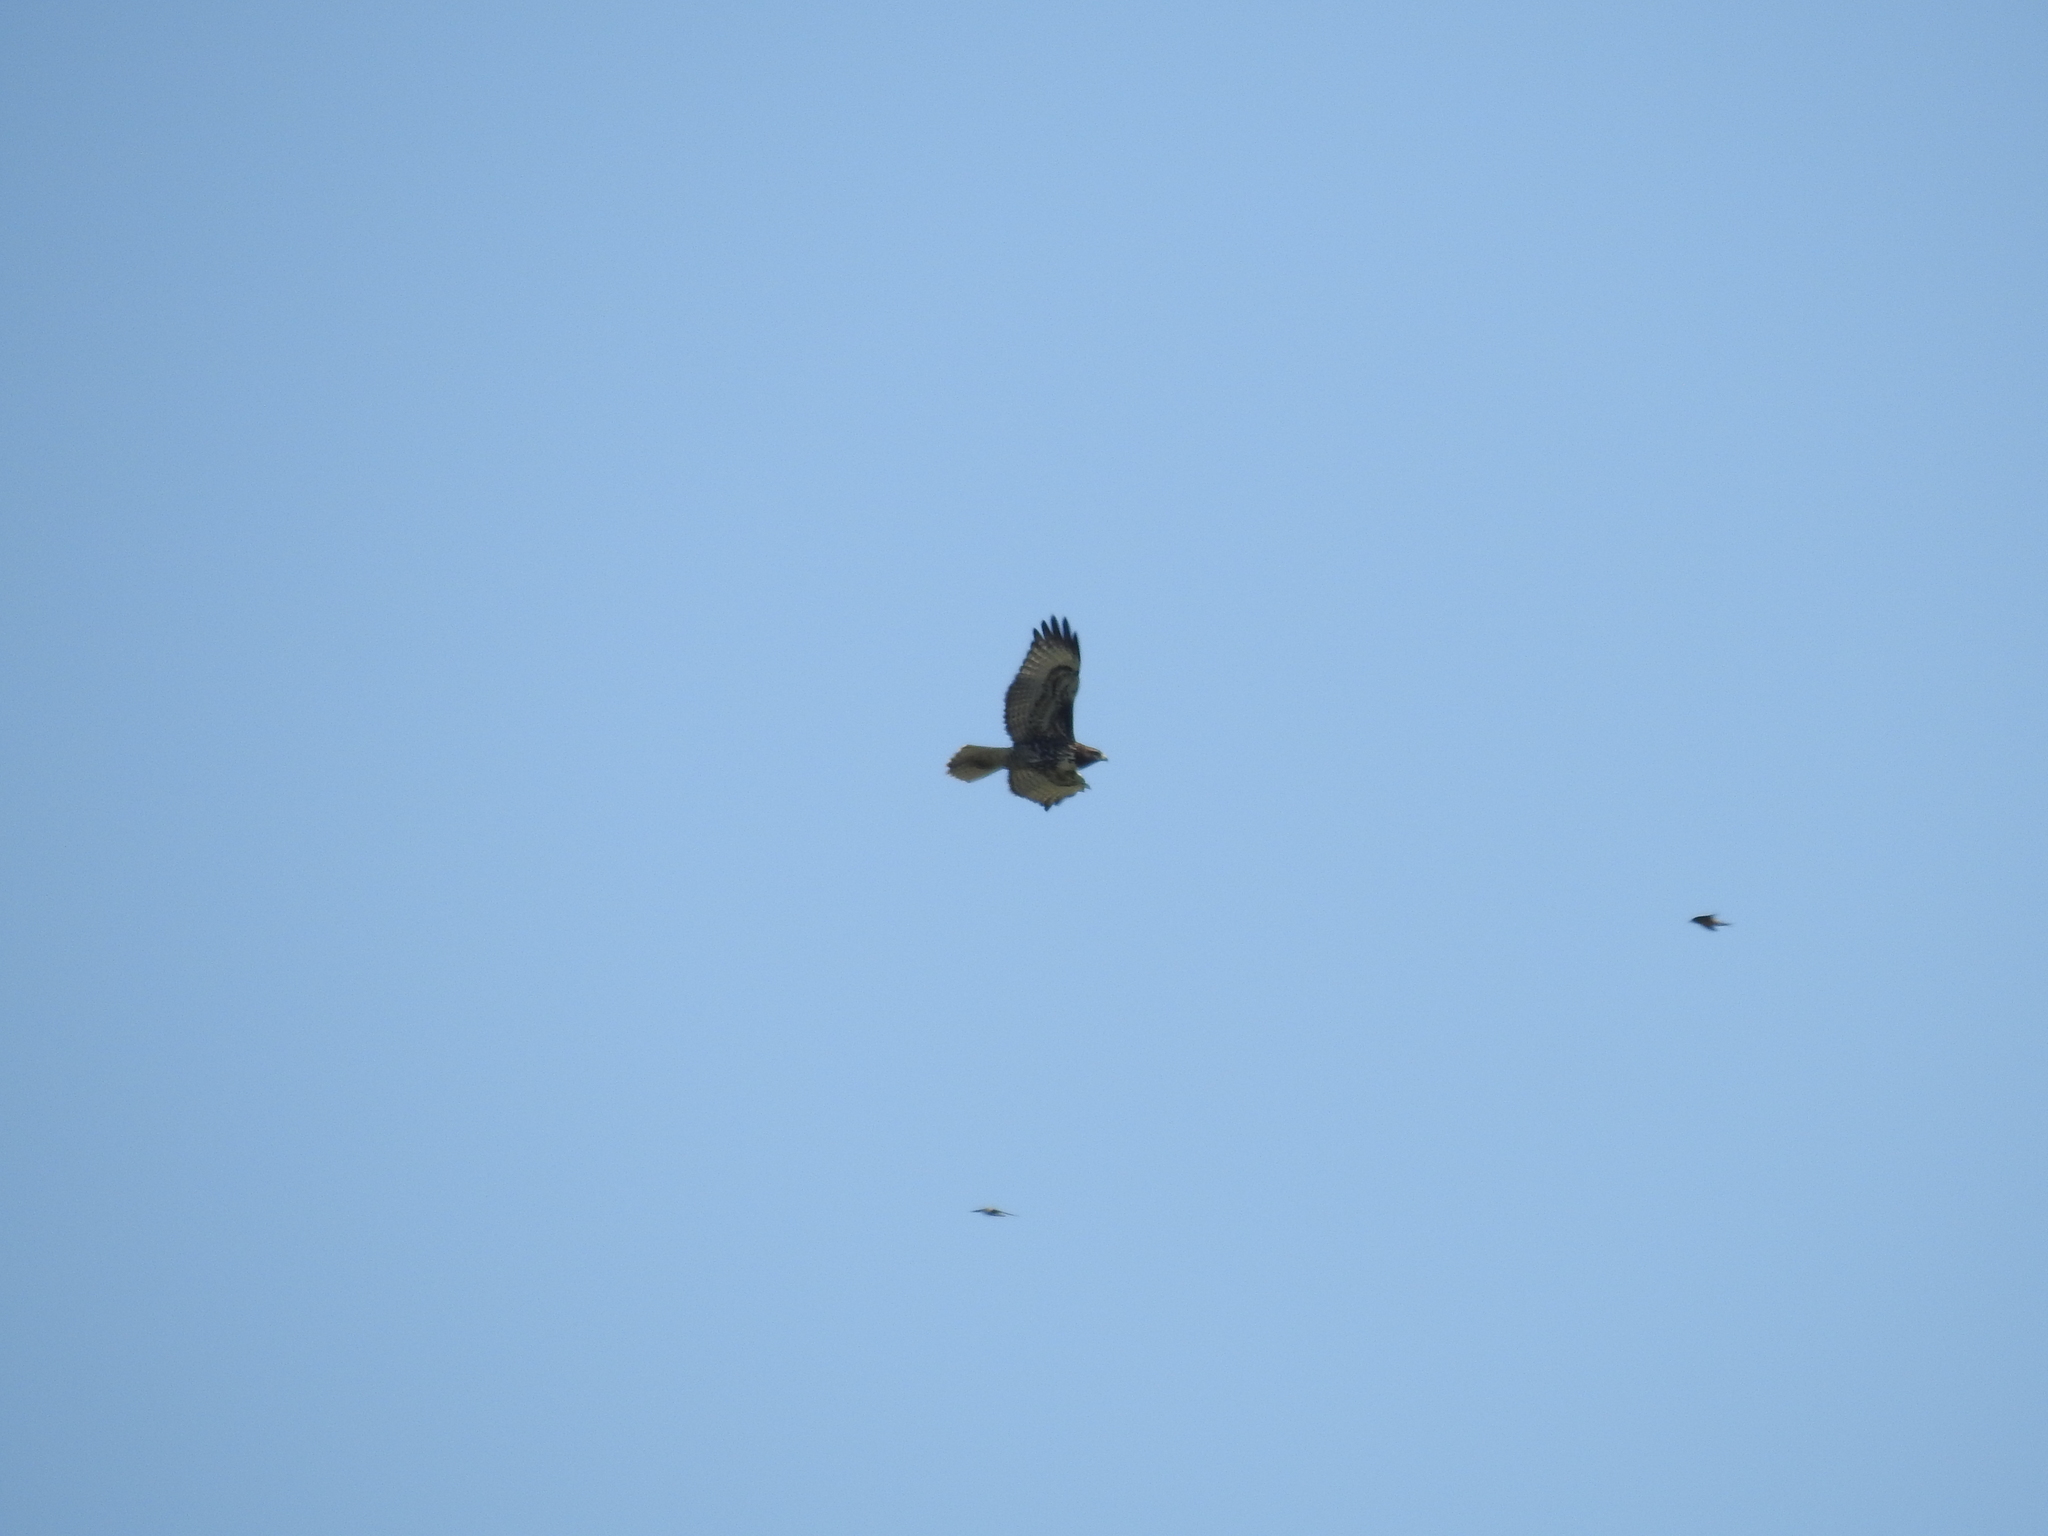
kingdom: Animalia
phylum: Chordata
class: Aves
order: Accipitriformes
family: Accipitridae
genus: Buteo
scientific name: Buteo jamaicensis
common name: Red-tailed hawk
